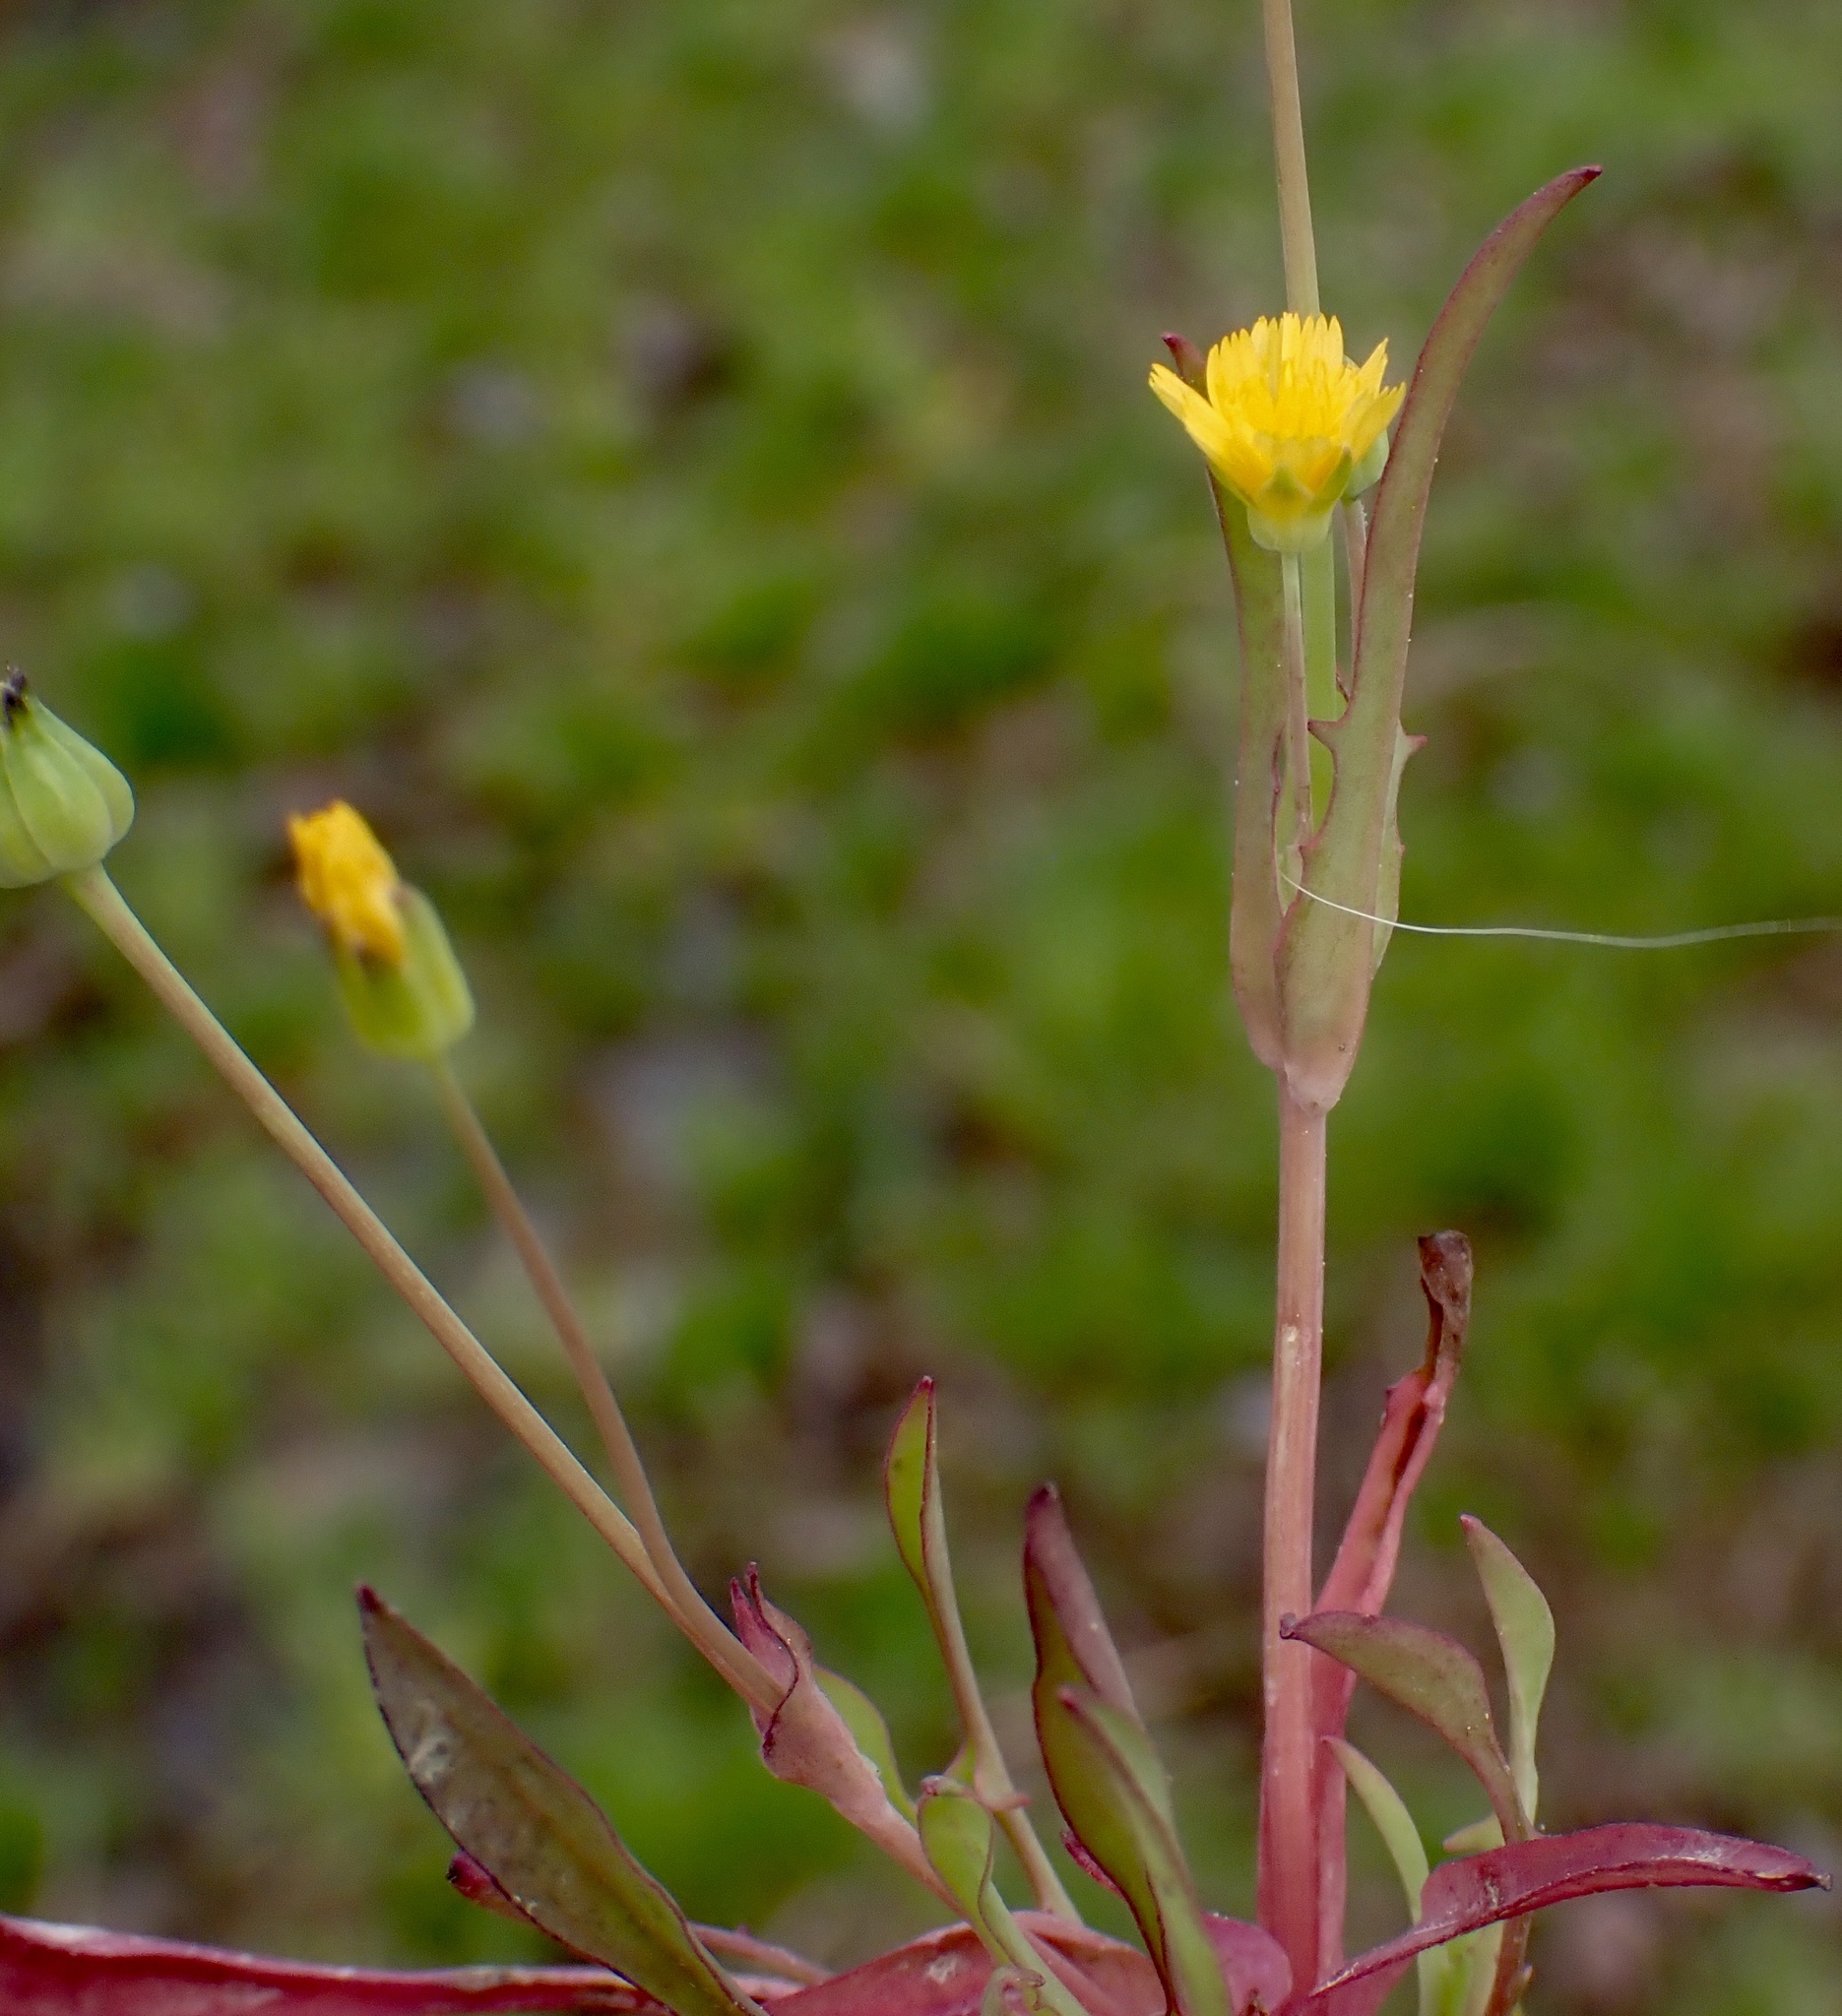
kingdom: Plantae
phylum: Tracheophyta
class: Magnoliopsida
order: Asterales
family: Asteraceae
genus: Krigia
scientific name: Krigia cespitosa
